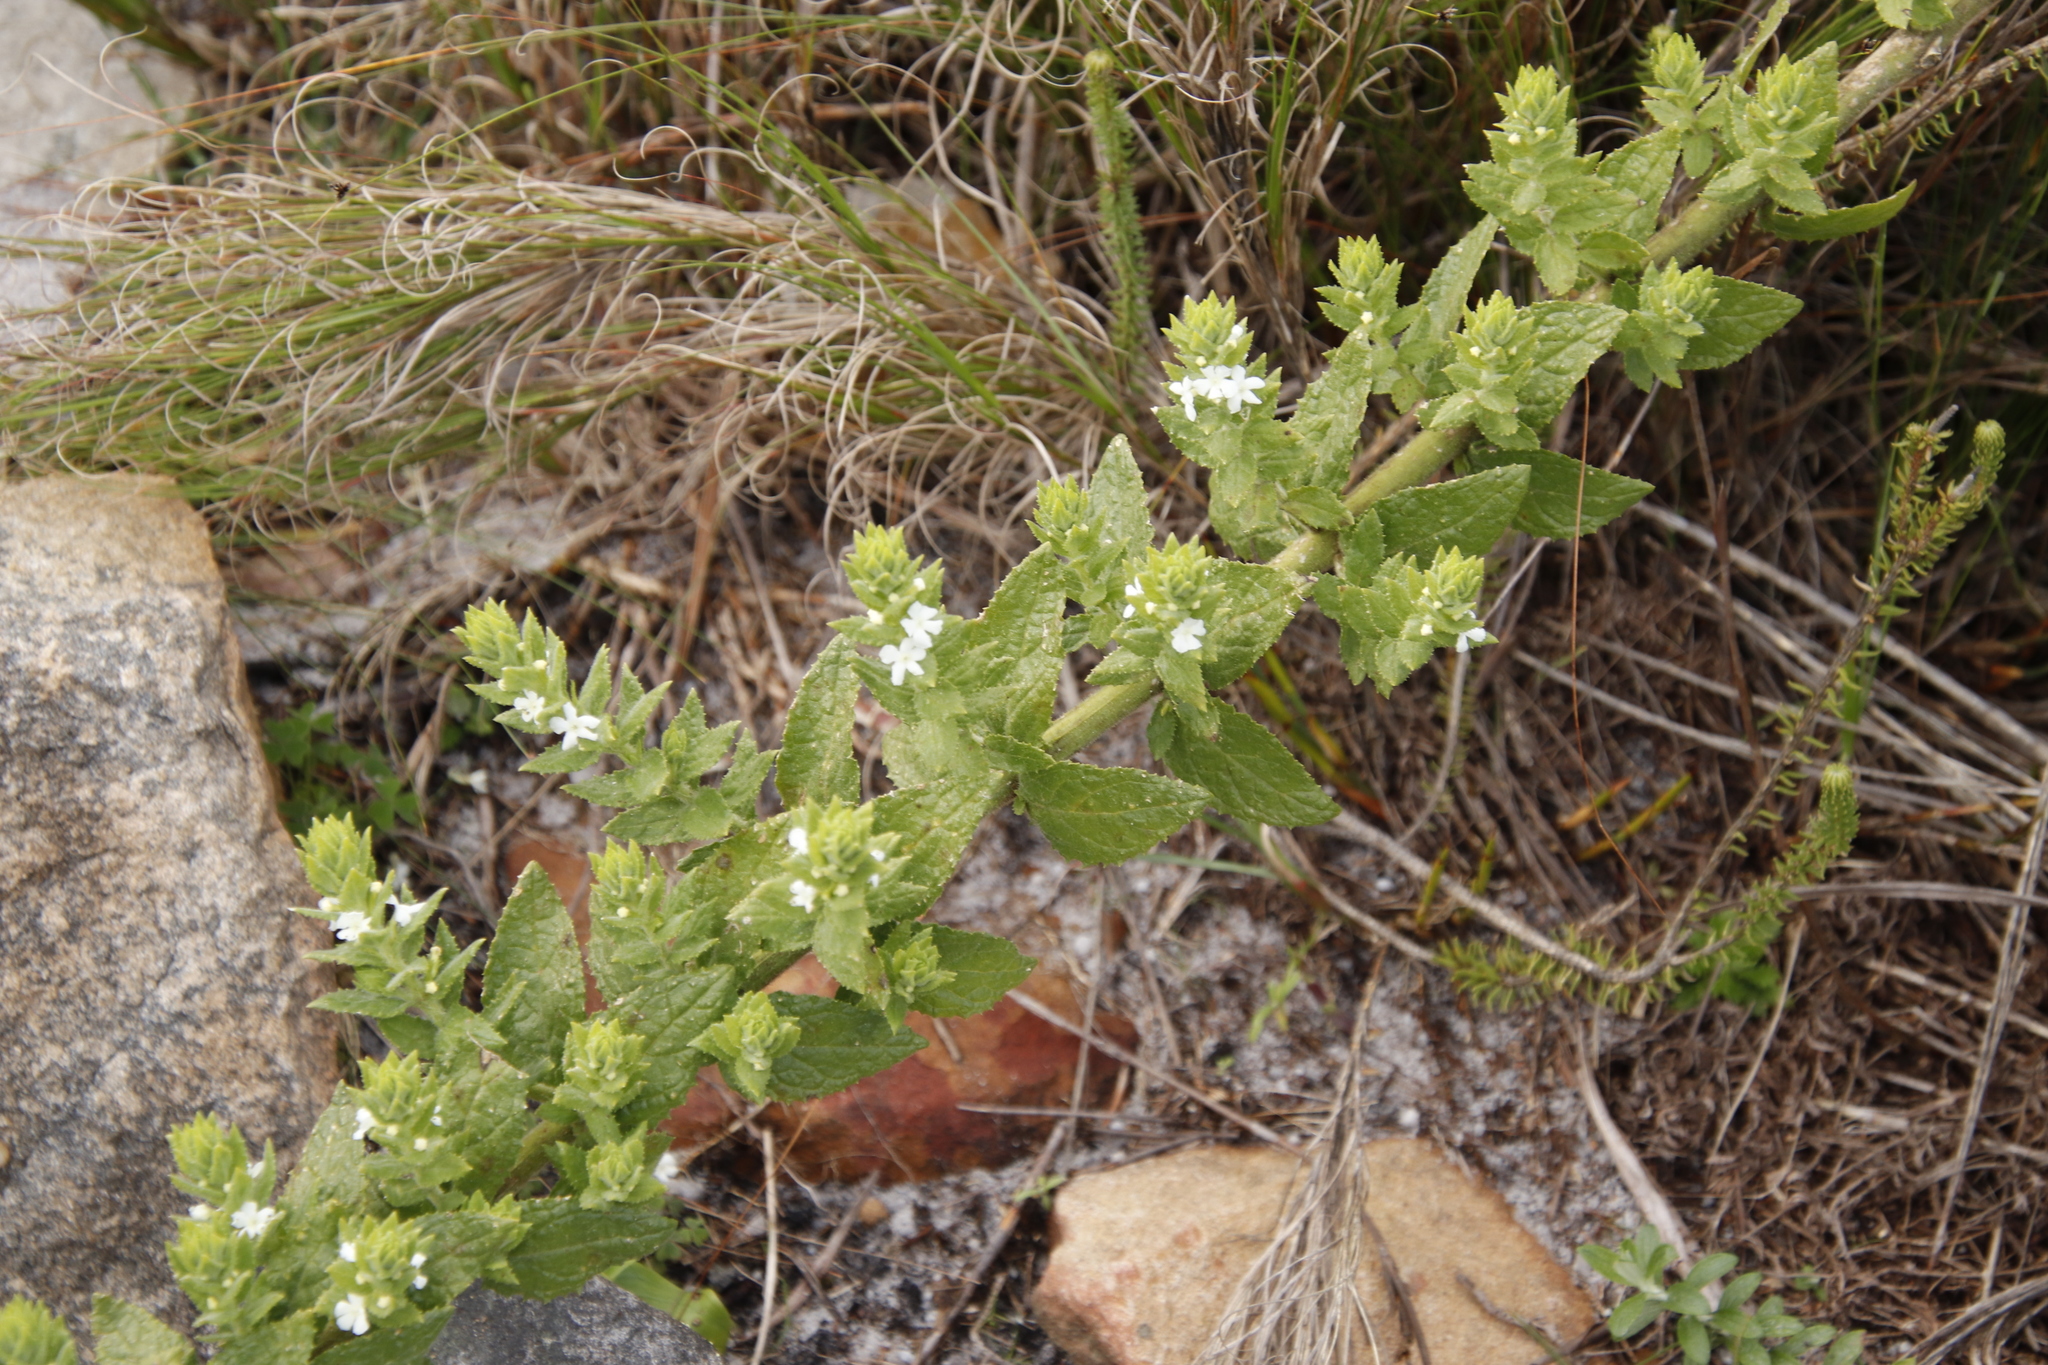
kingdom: Plantae
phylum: Tracheophyta
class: Magnoliopsida
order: Lamiales
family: Scrophulariaceae
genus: Oftia
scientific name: Oftia africana
